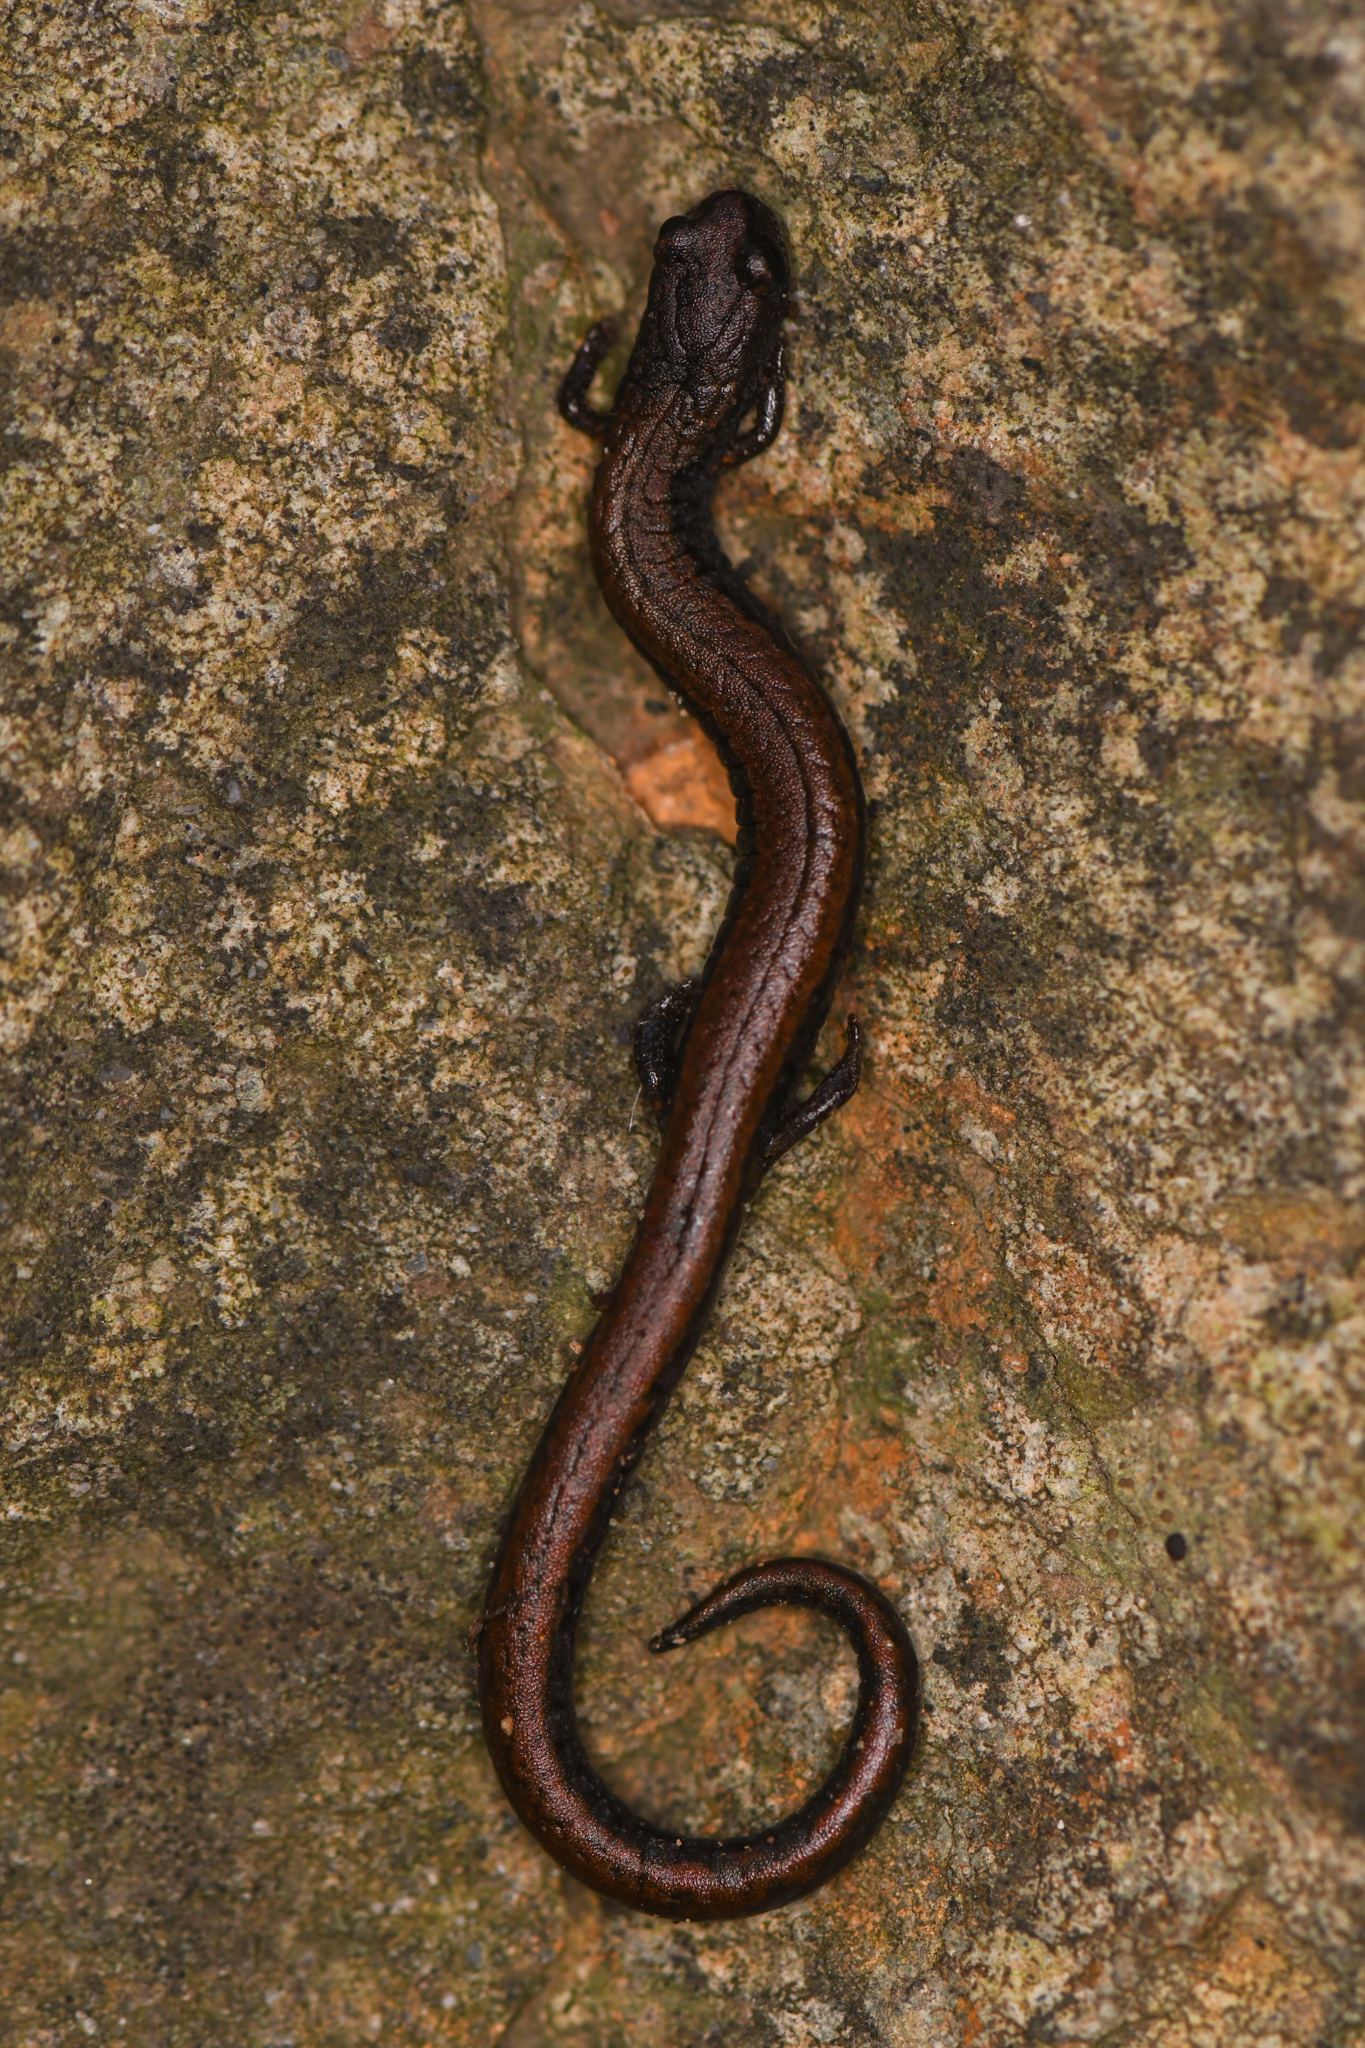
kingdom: Animalia
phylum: Chordata
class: Amphibia
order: Caudata
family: Plethodontidae
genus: Batrachoseps
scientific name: Batrachoseps incognitus
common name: San simeon slender salamander
